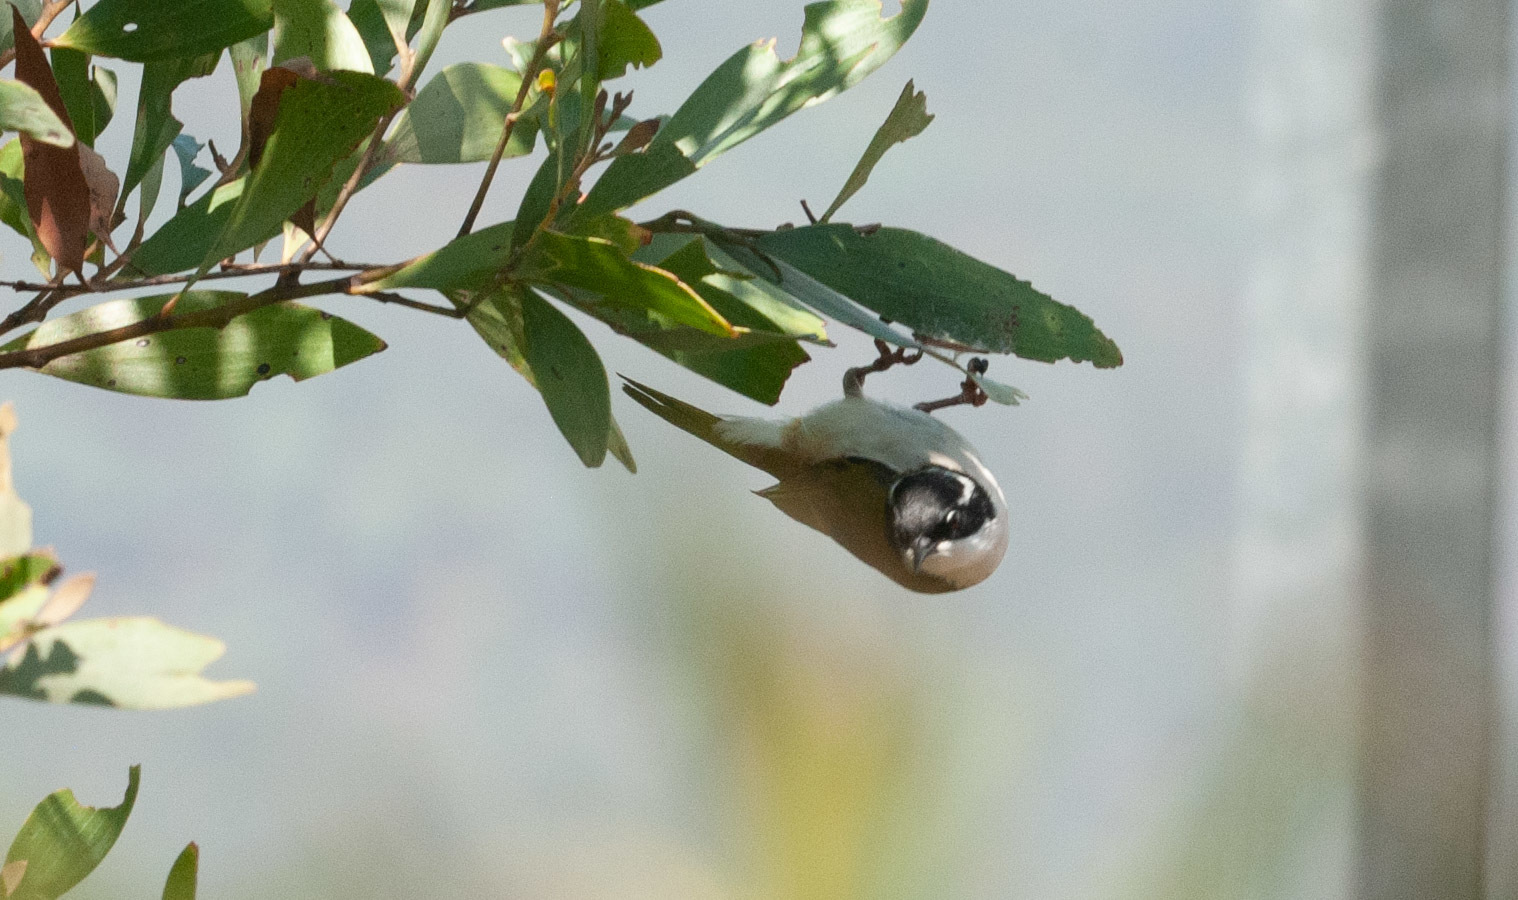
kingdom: Animalia
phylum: Chordata
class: Aves
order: Passeriformes
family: Meliphagidae
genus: Melithreptus
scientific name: Melithreptus albogularis
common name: White-throated honeyeater
